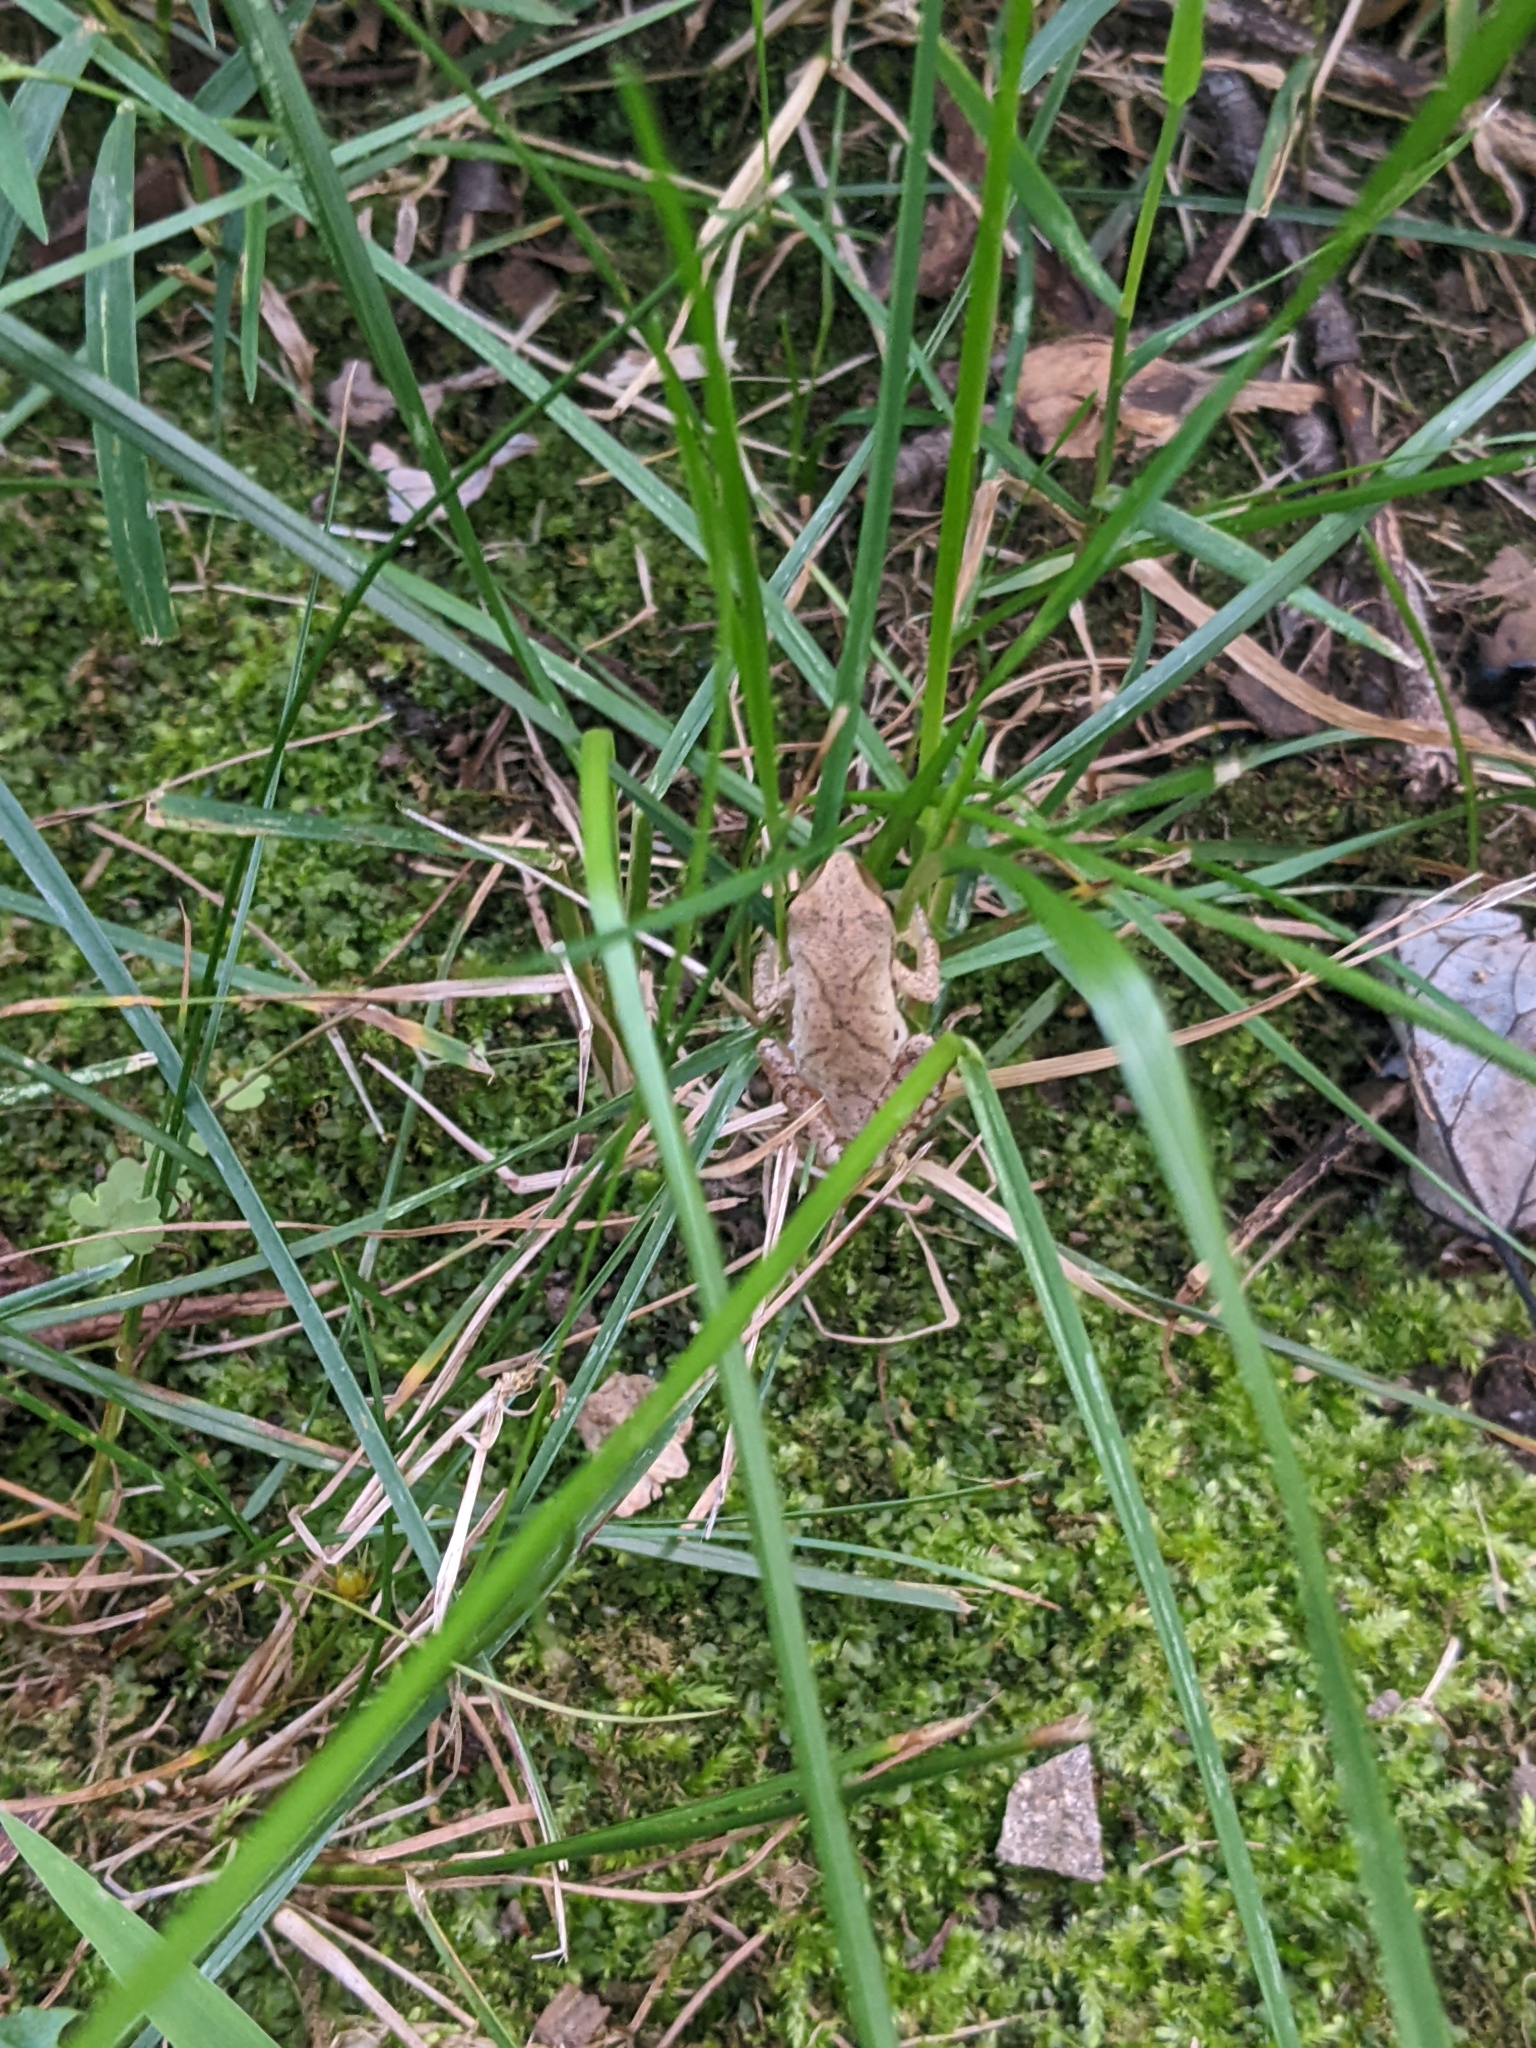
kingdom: Animalia
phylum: Chordata
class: Amphibia
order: Anura
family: Hylidae
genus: Pseudacris
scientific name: Pseudacris crucifer
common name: Spring peeper
